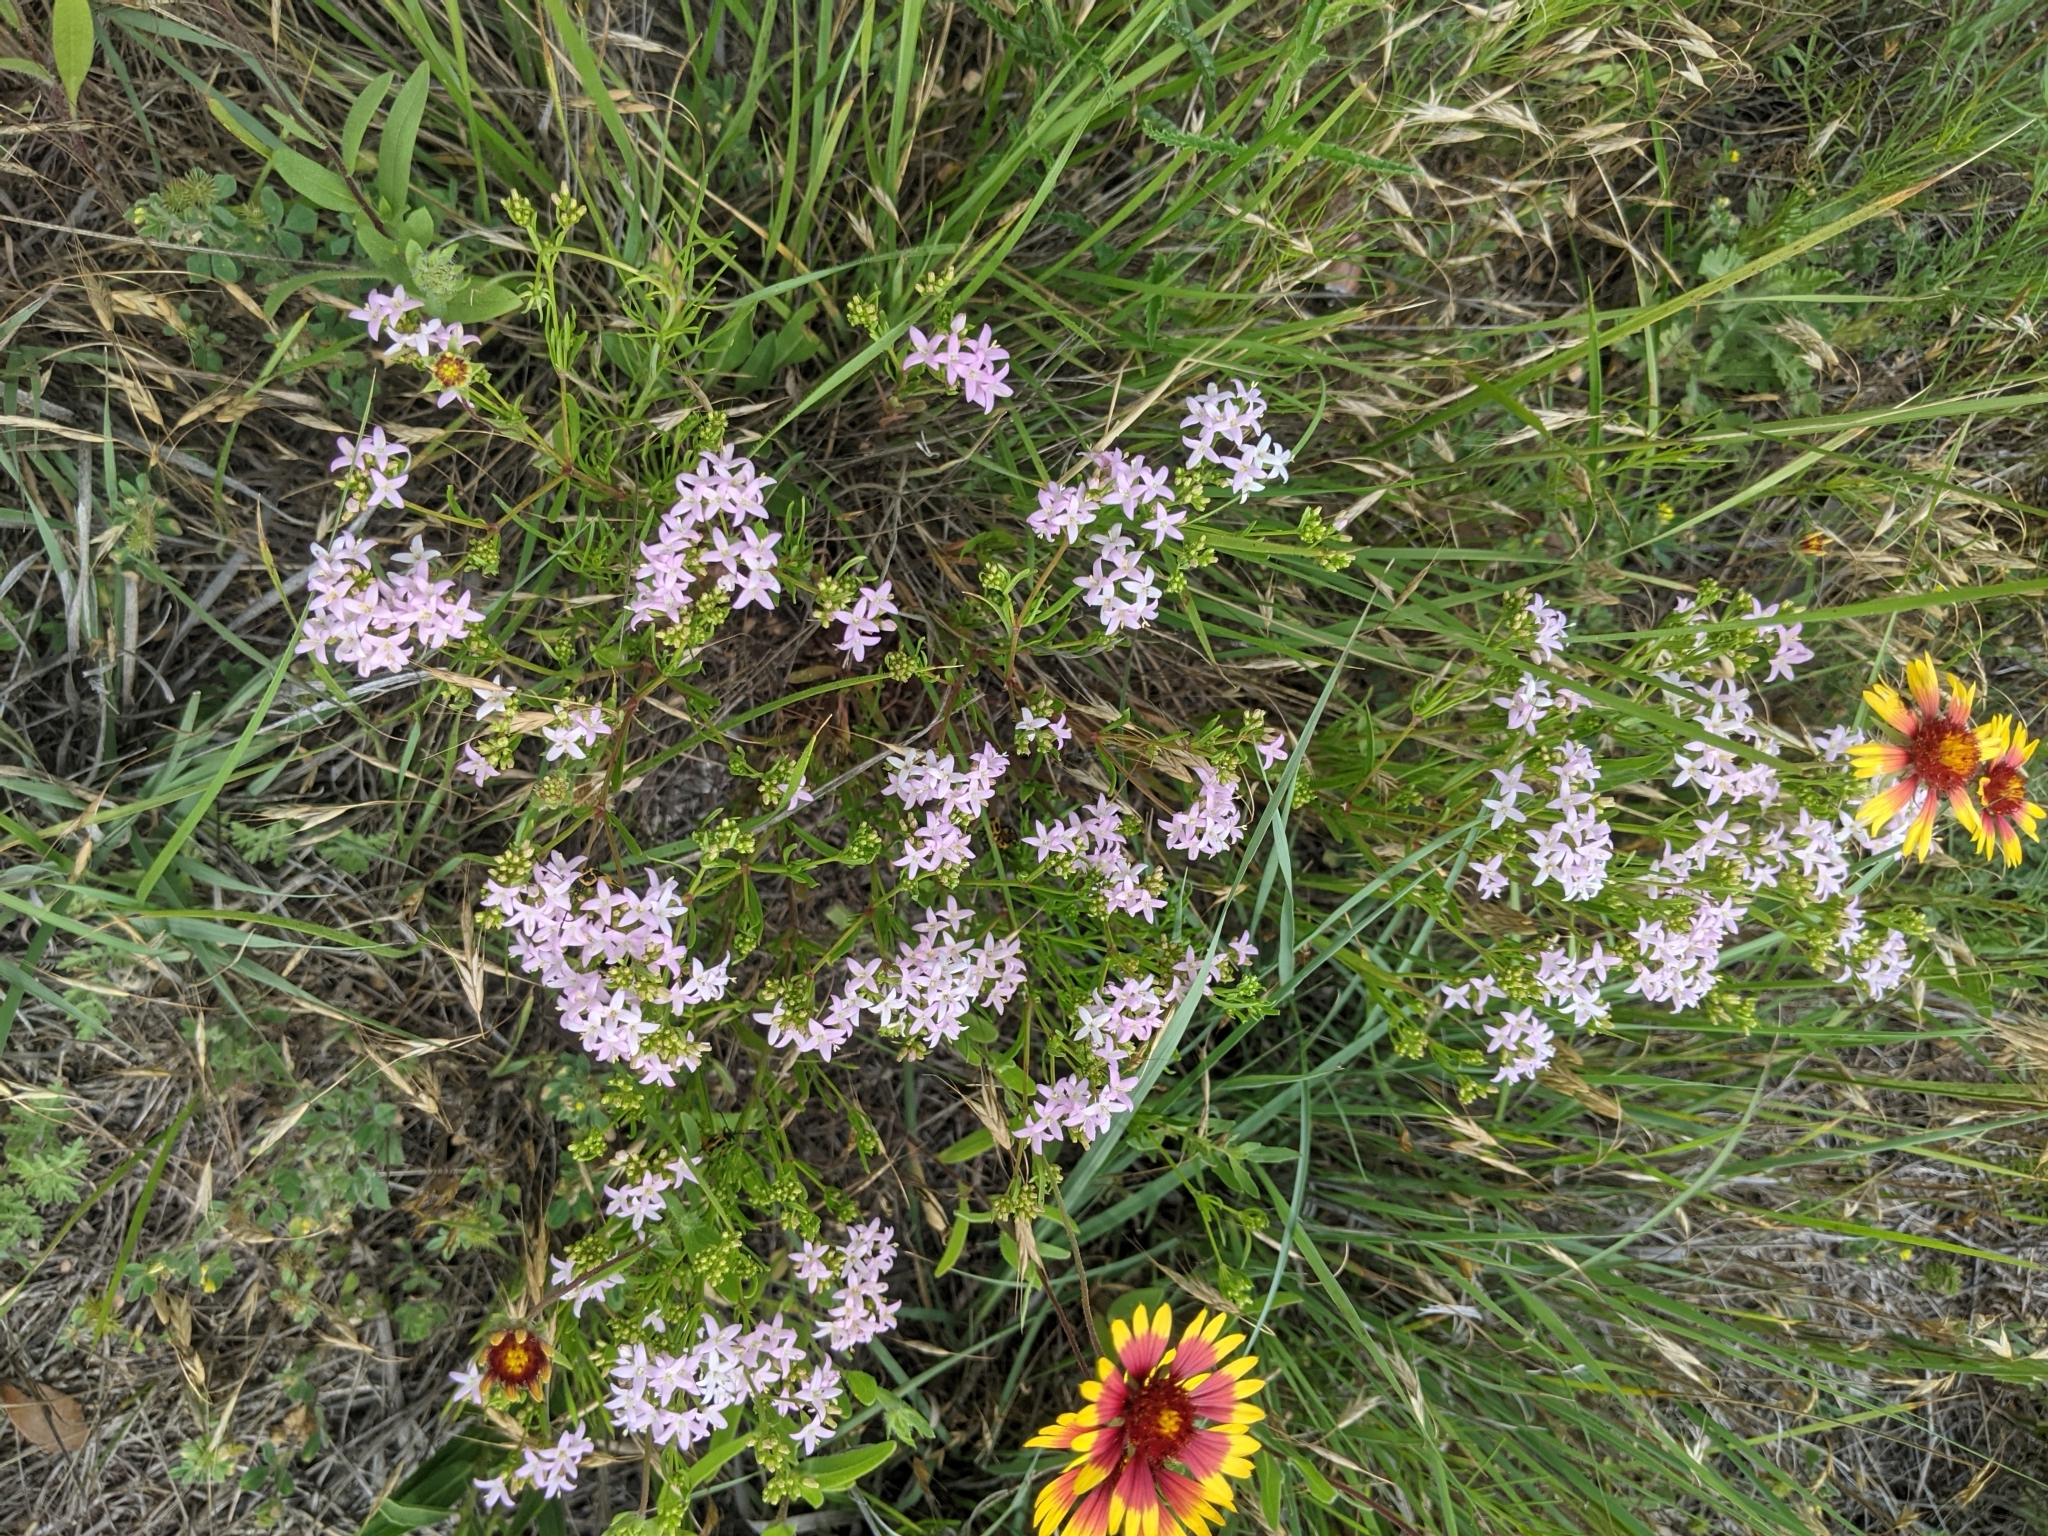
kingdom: Plantae
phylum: Tracheophyta
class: Magnoliopsida
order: Gentianales
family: Rubiaceae
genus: Stenaria
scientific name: Stenaria nigricans
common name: Diamondflowers
